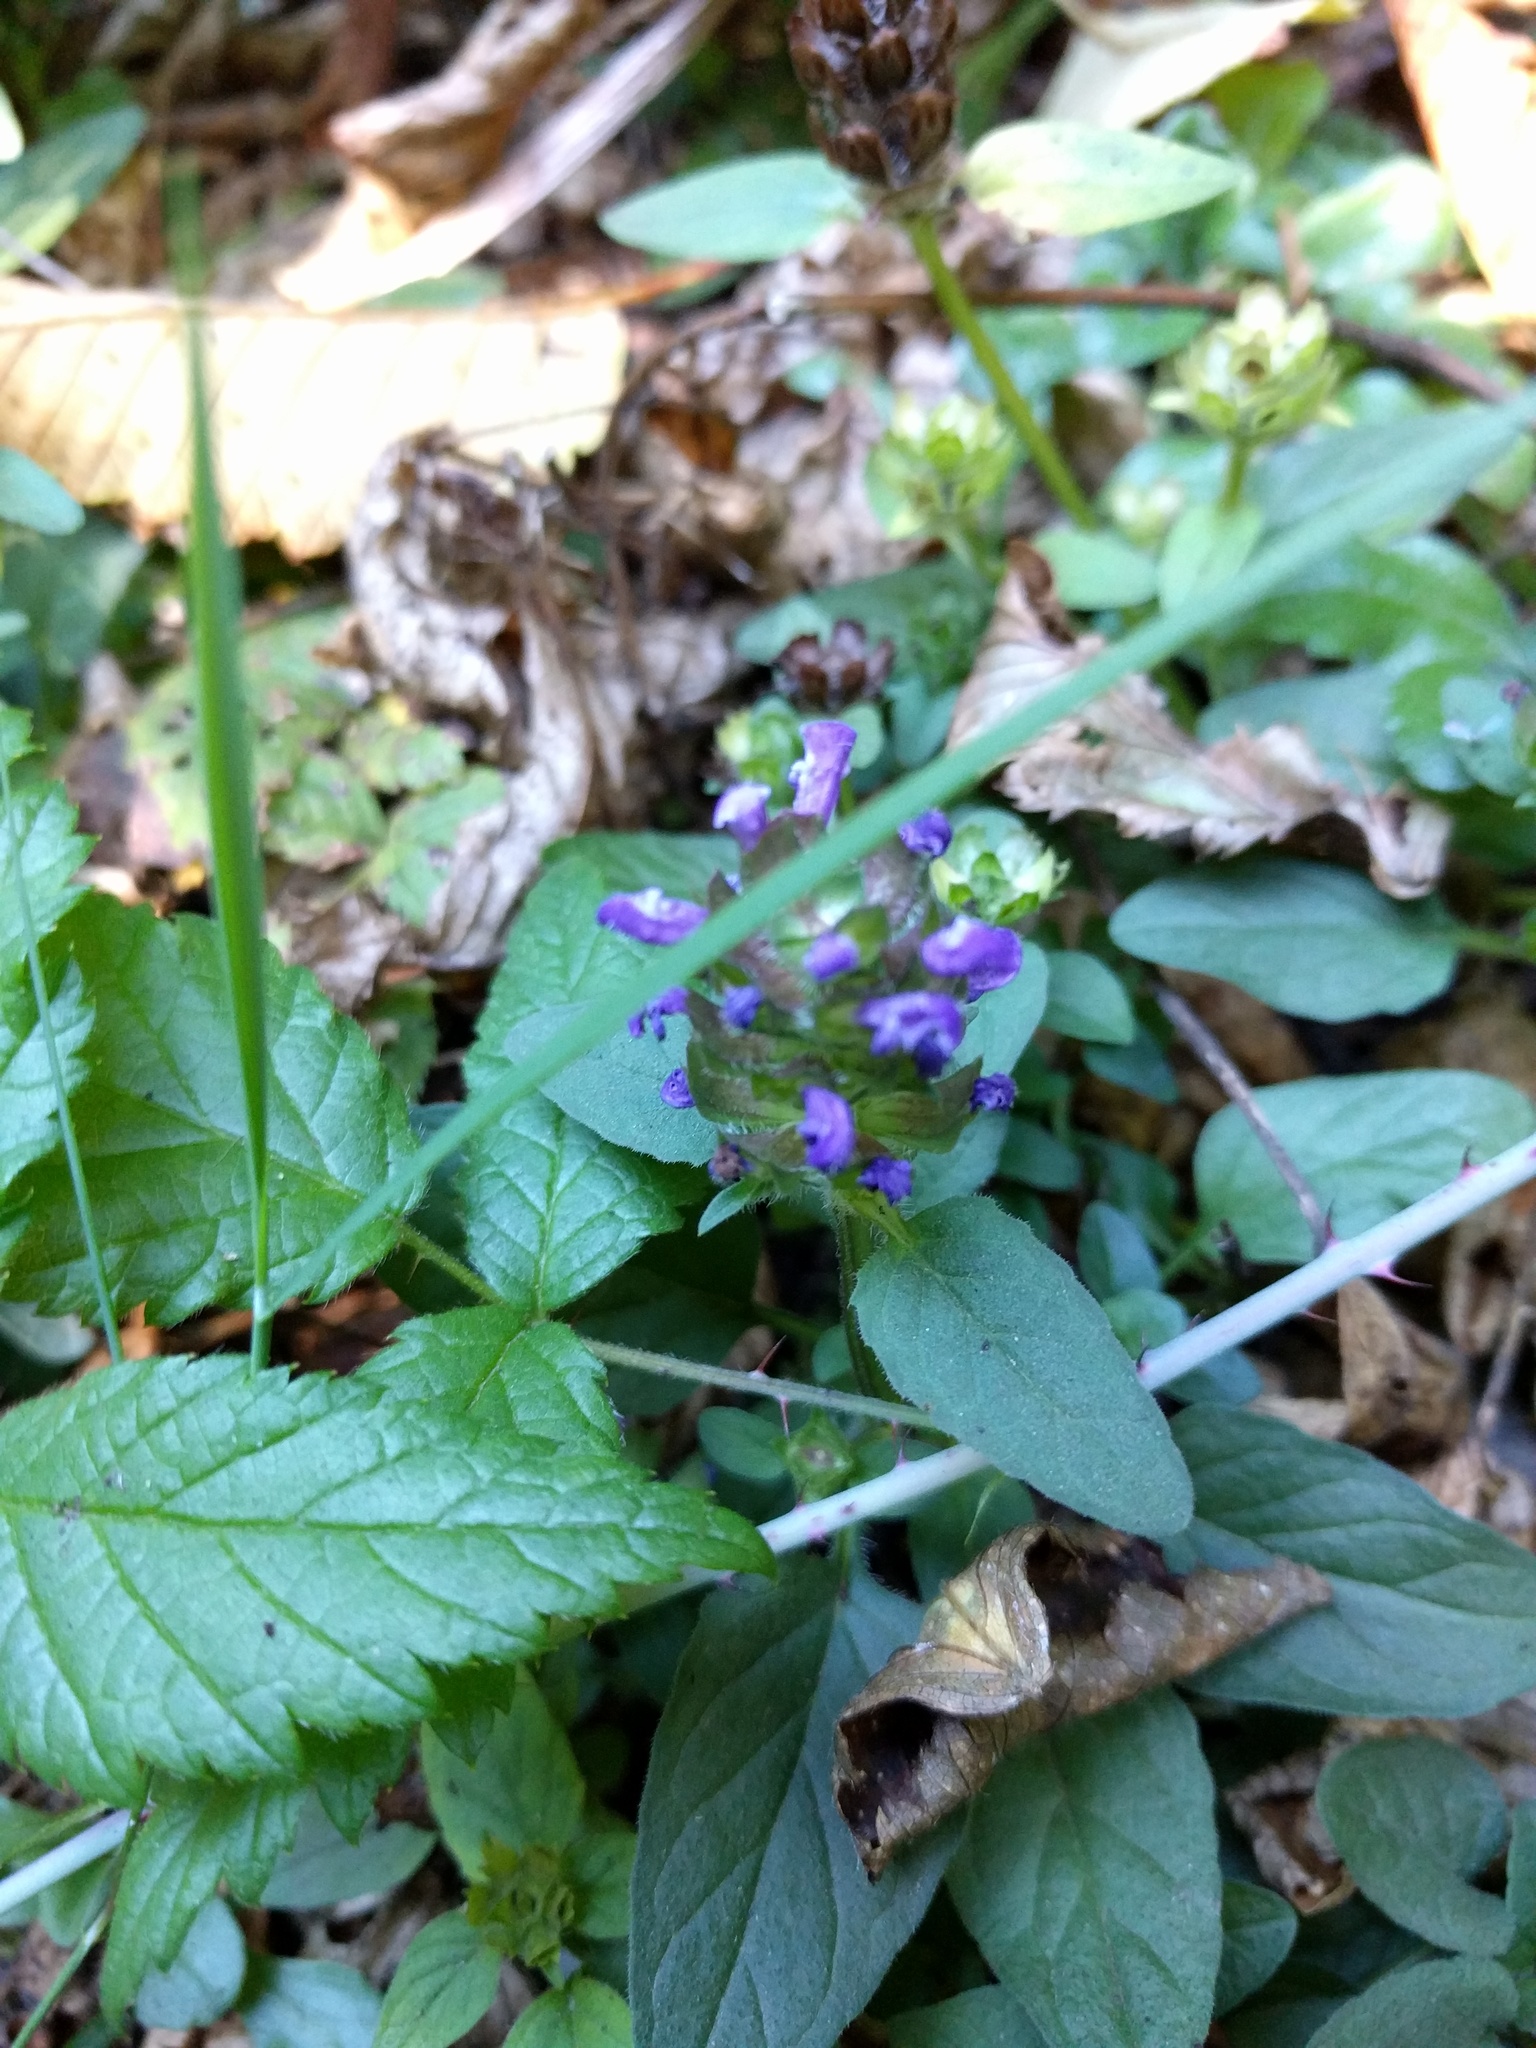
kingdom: Plantae
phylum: Tracheophyta
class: Magnoliopsida
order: Lamiales
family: Lamiaceae
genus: Prunella
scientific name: Prunella vulgaris
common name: Heal-all
